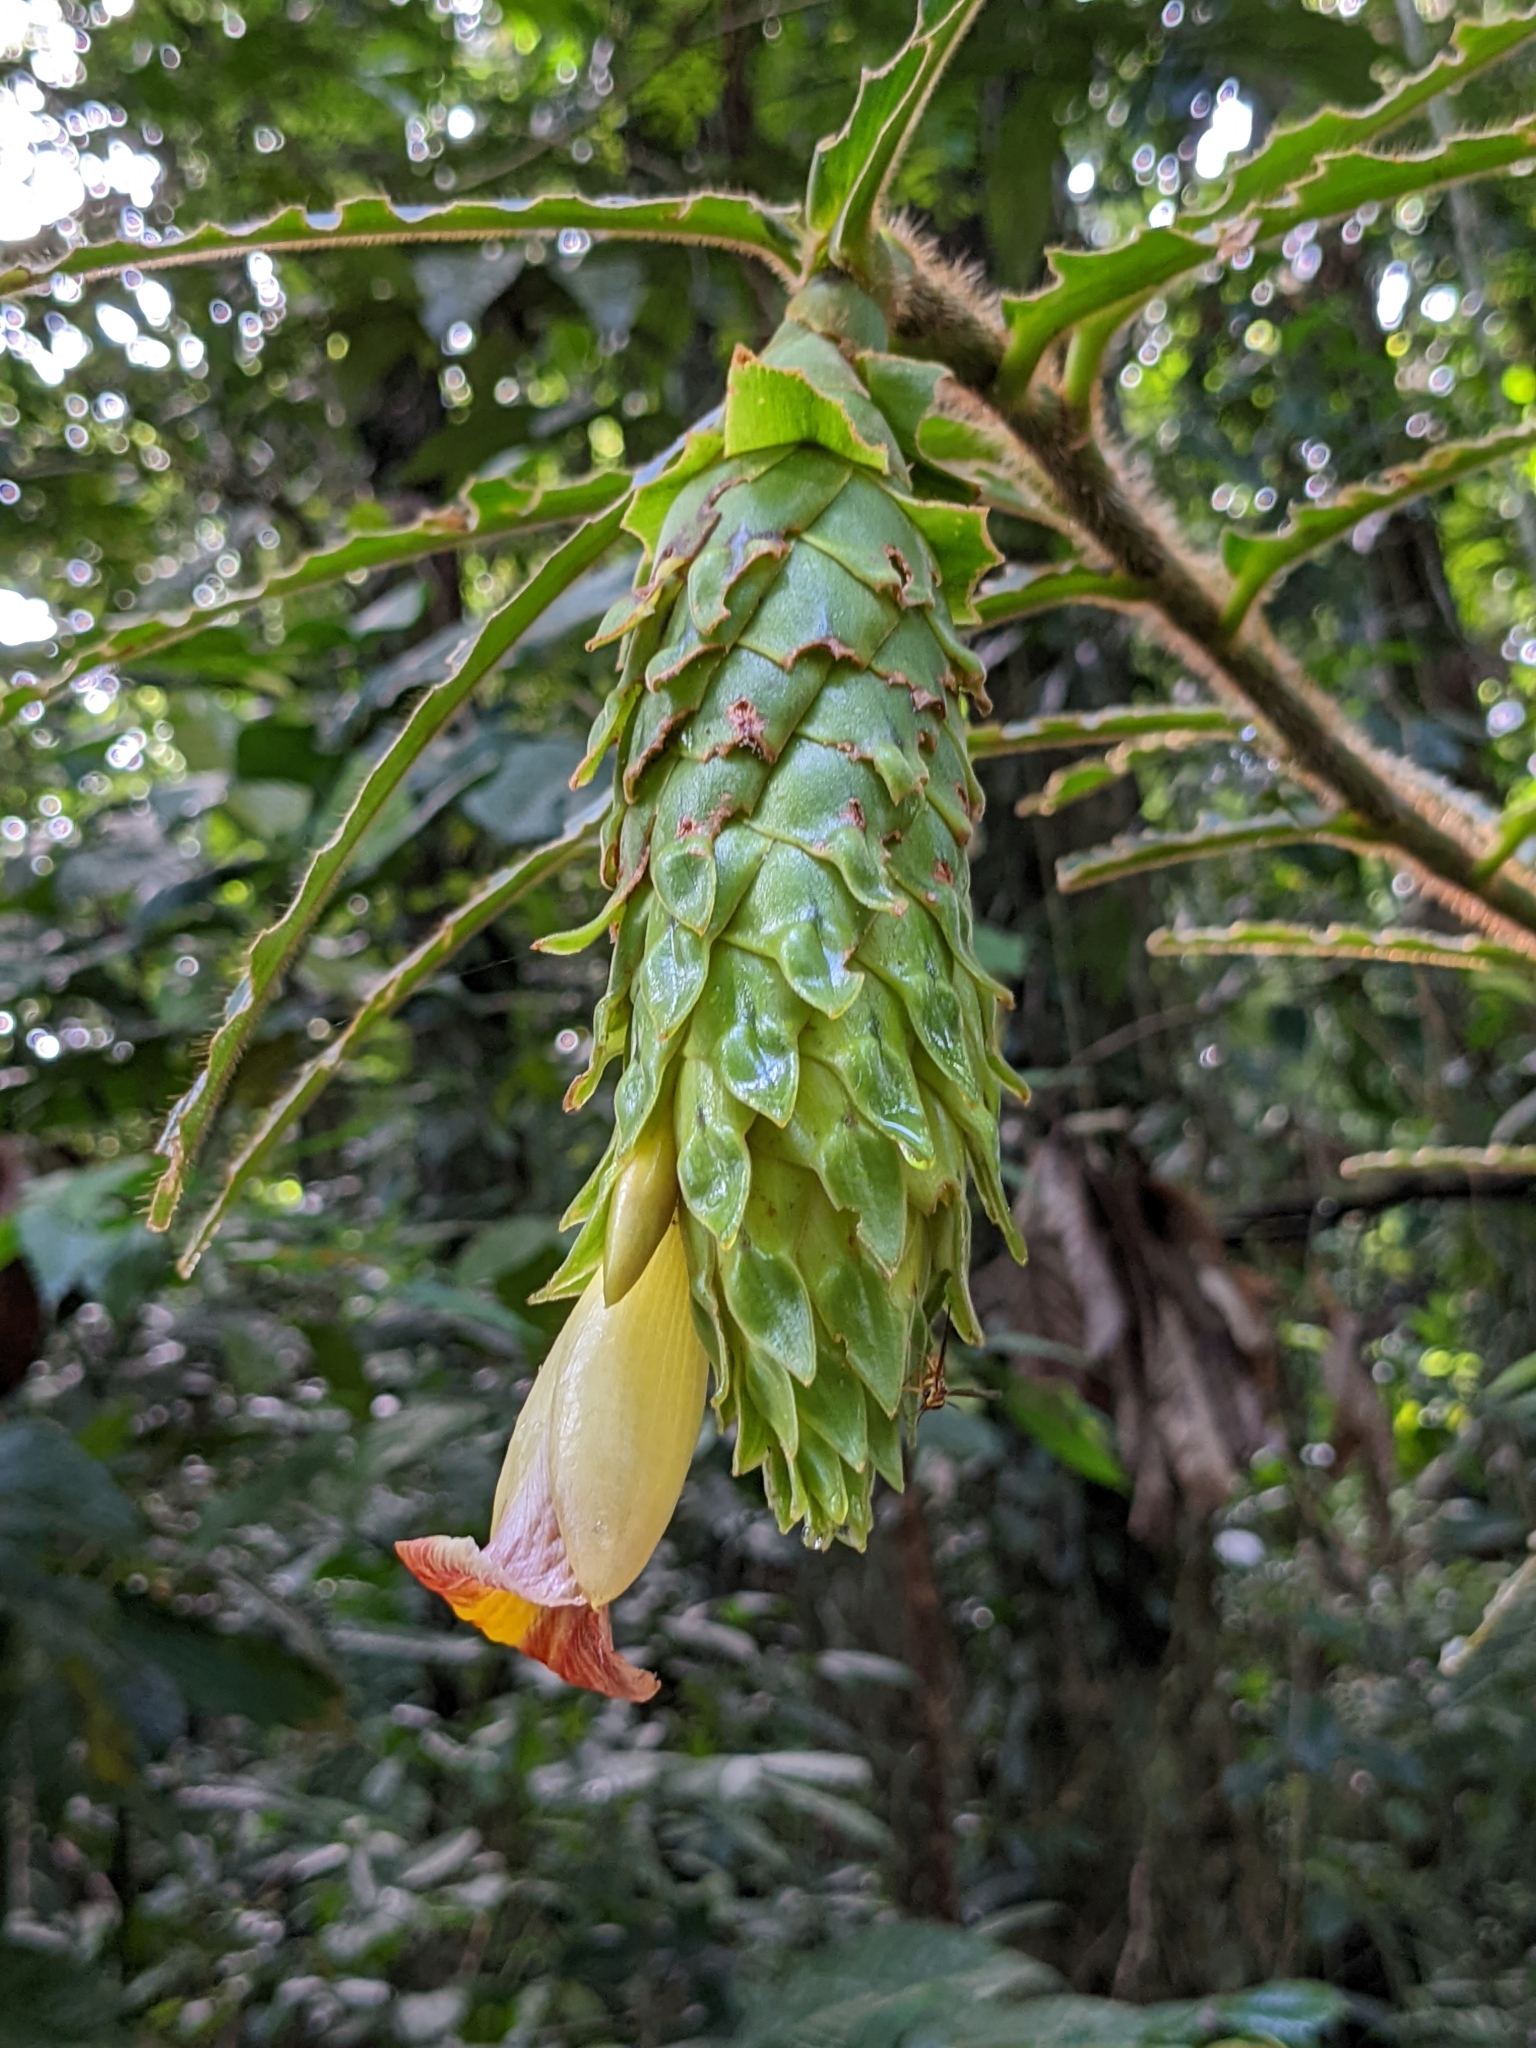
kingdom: Plantae
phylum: Tracheophyta
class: Liliopsida
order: Zingiberales
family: Costaceae
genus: Costus
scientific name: Costus bracteatus
